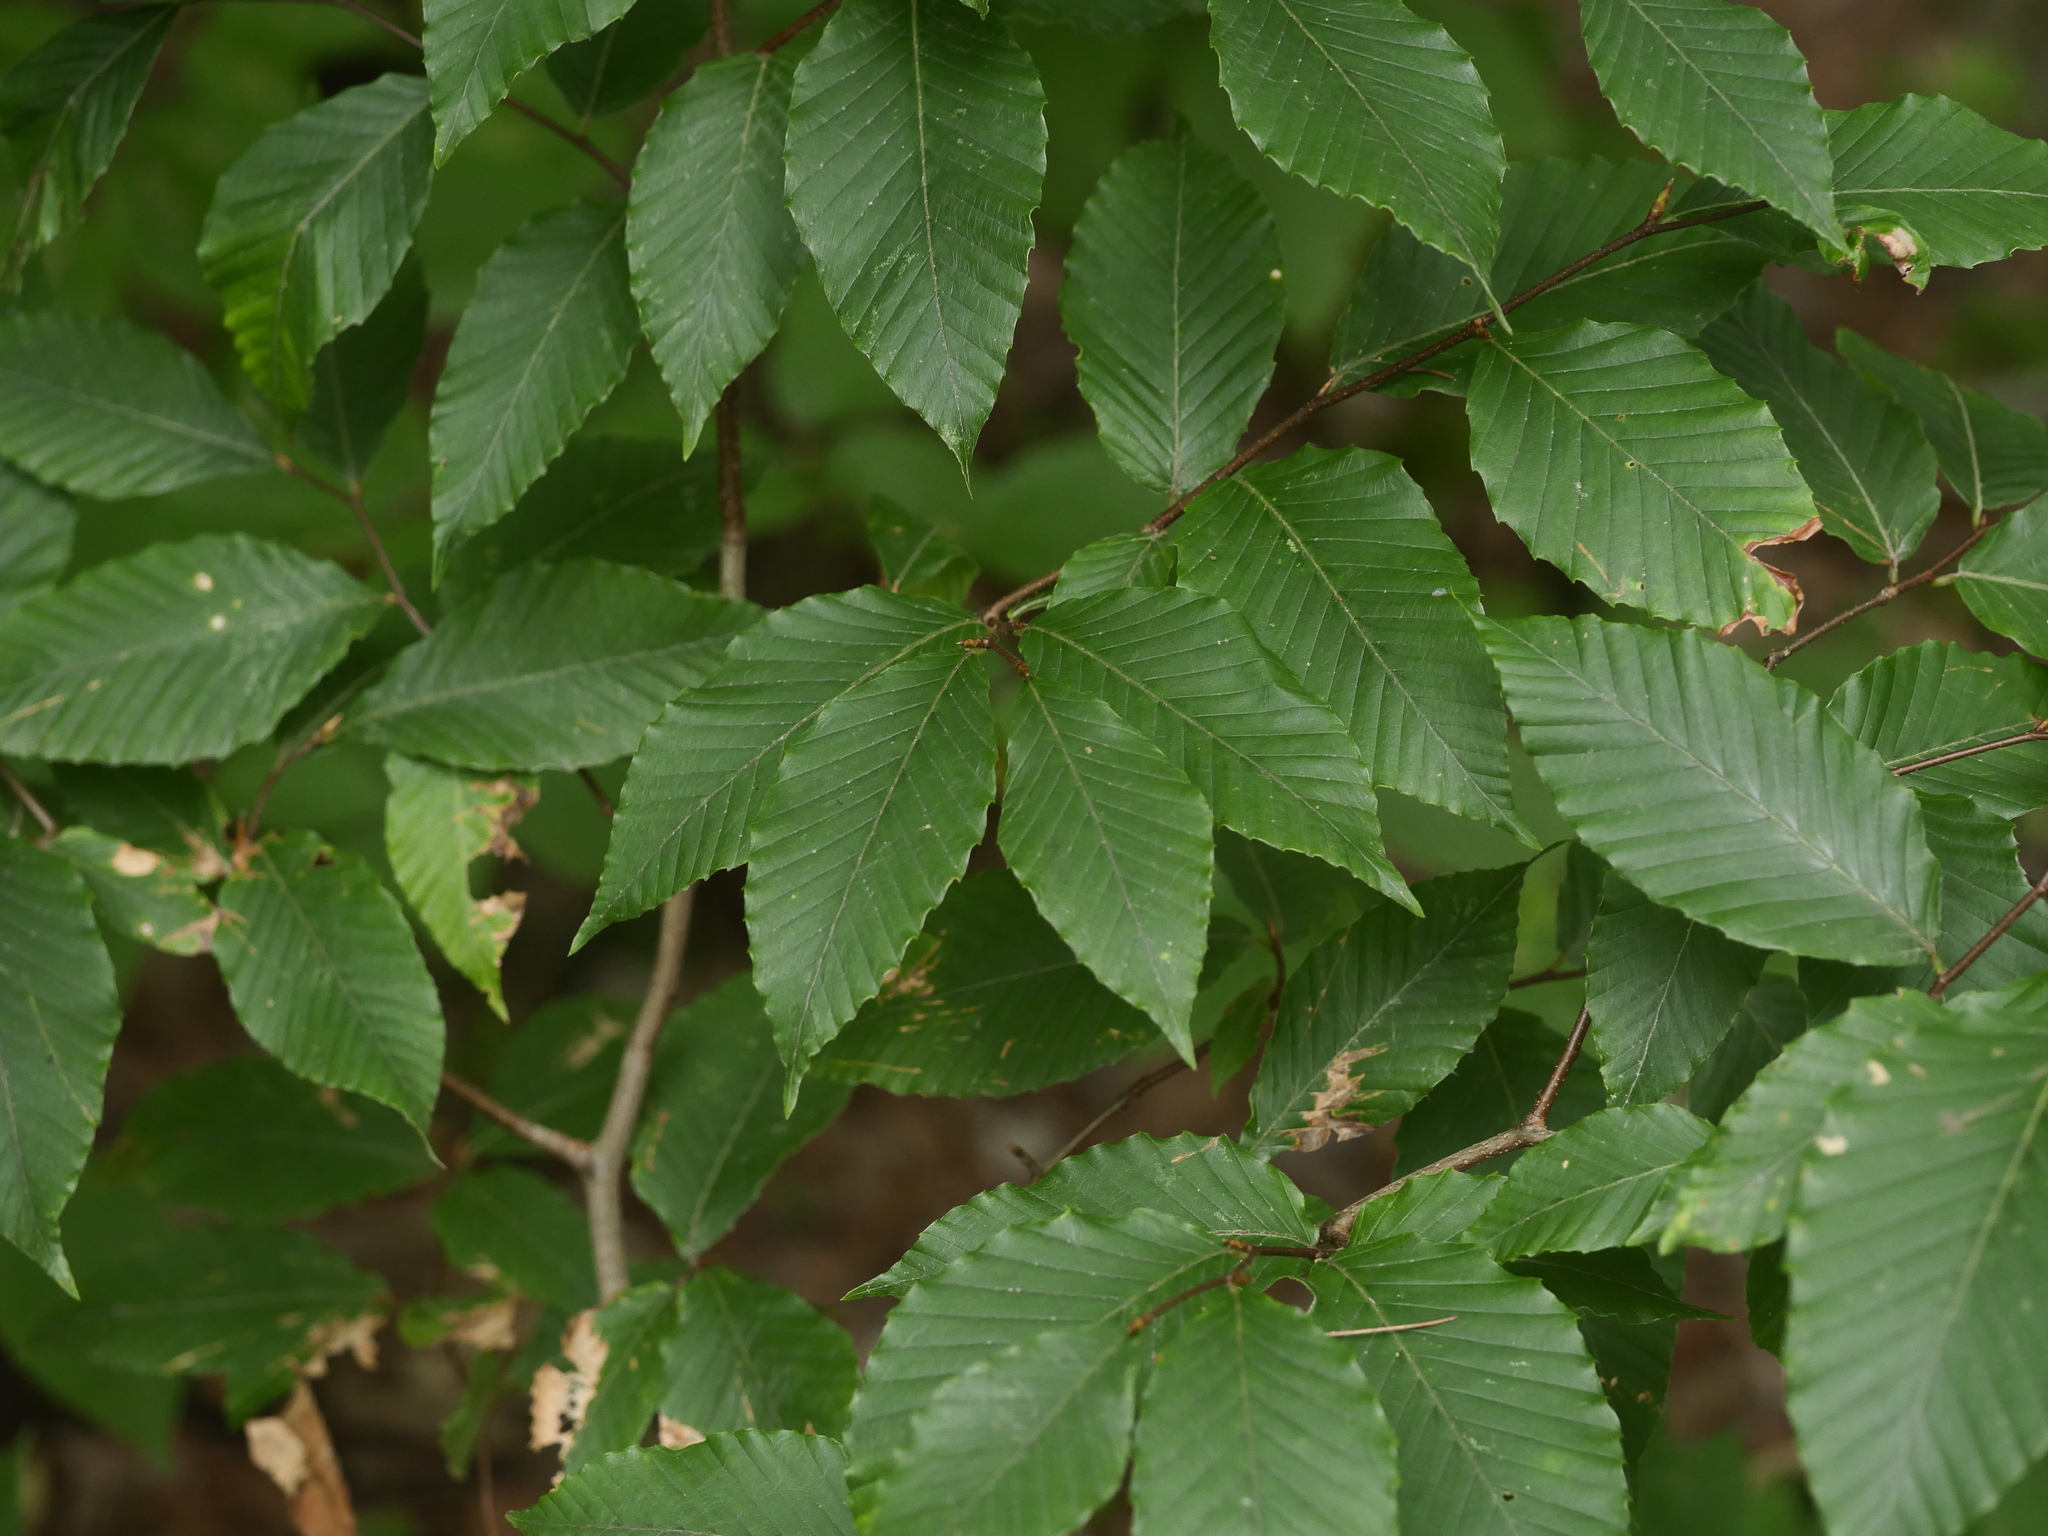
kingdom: Plantae
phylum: Tracheophyta
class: Magnoliopsida
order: Fagales
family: Fagaceae
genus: Fagus
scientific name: Fagus grandifolia
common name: American beech
